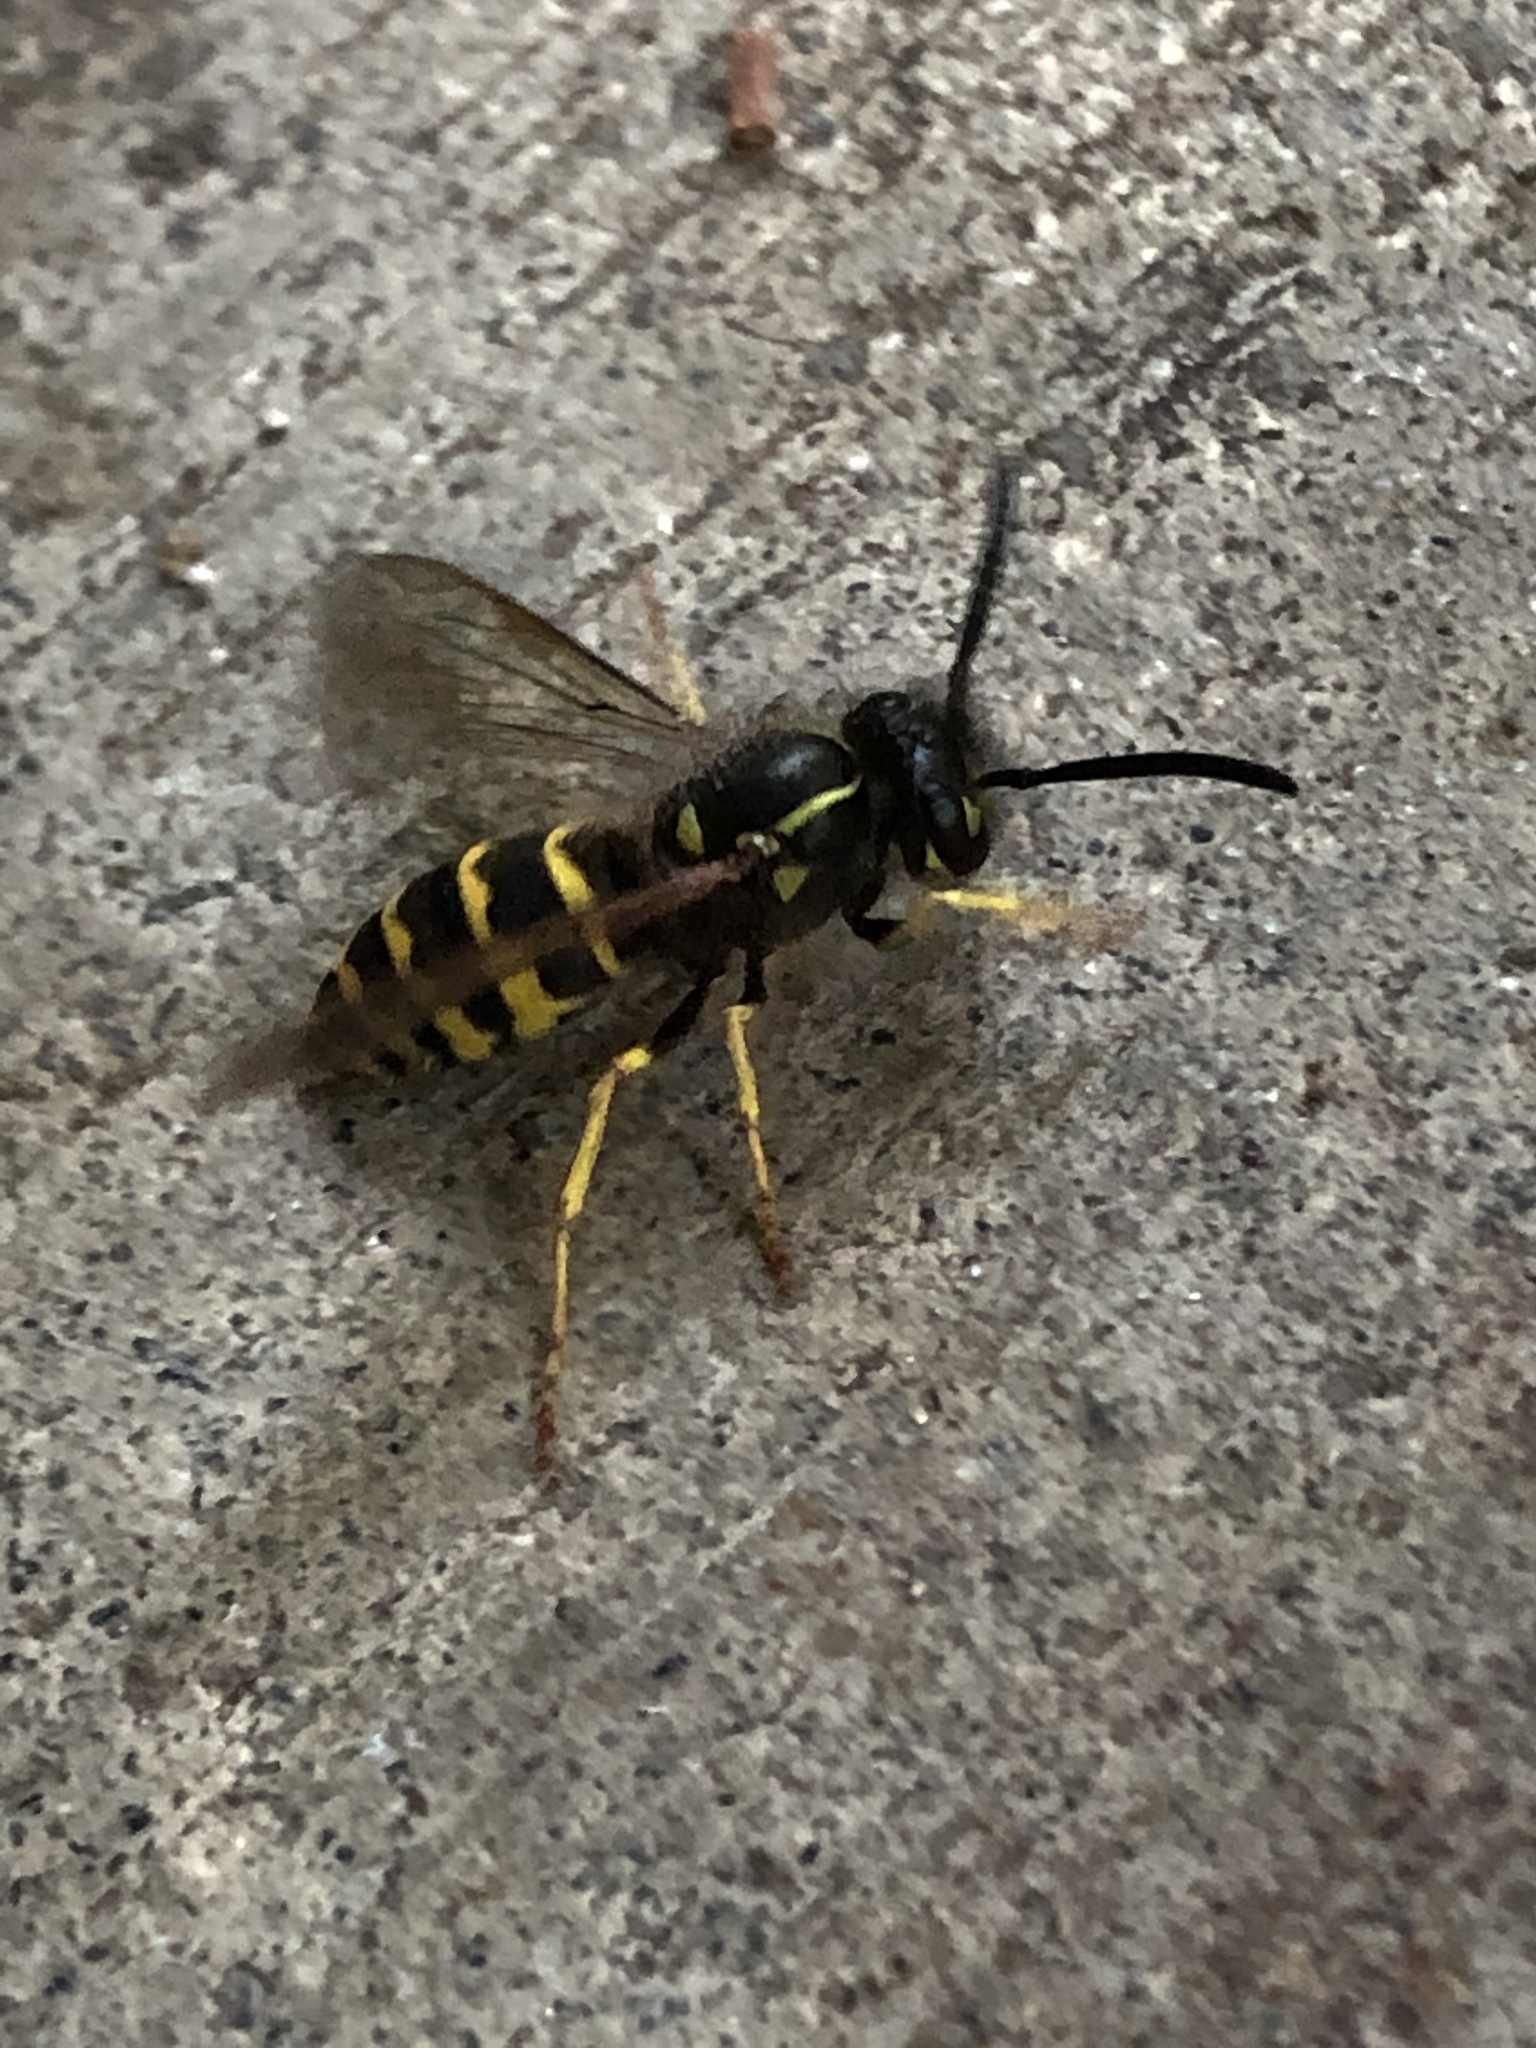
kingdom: Animalia
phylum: Arthropoda
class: Insecta
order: Hymenoptera
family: Vespidae
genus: Vespula
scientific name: Vespula alascensis
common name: Alaska yellowjacket
